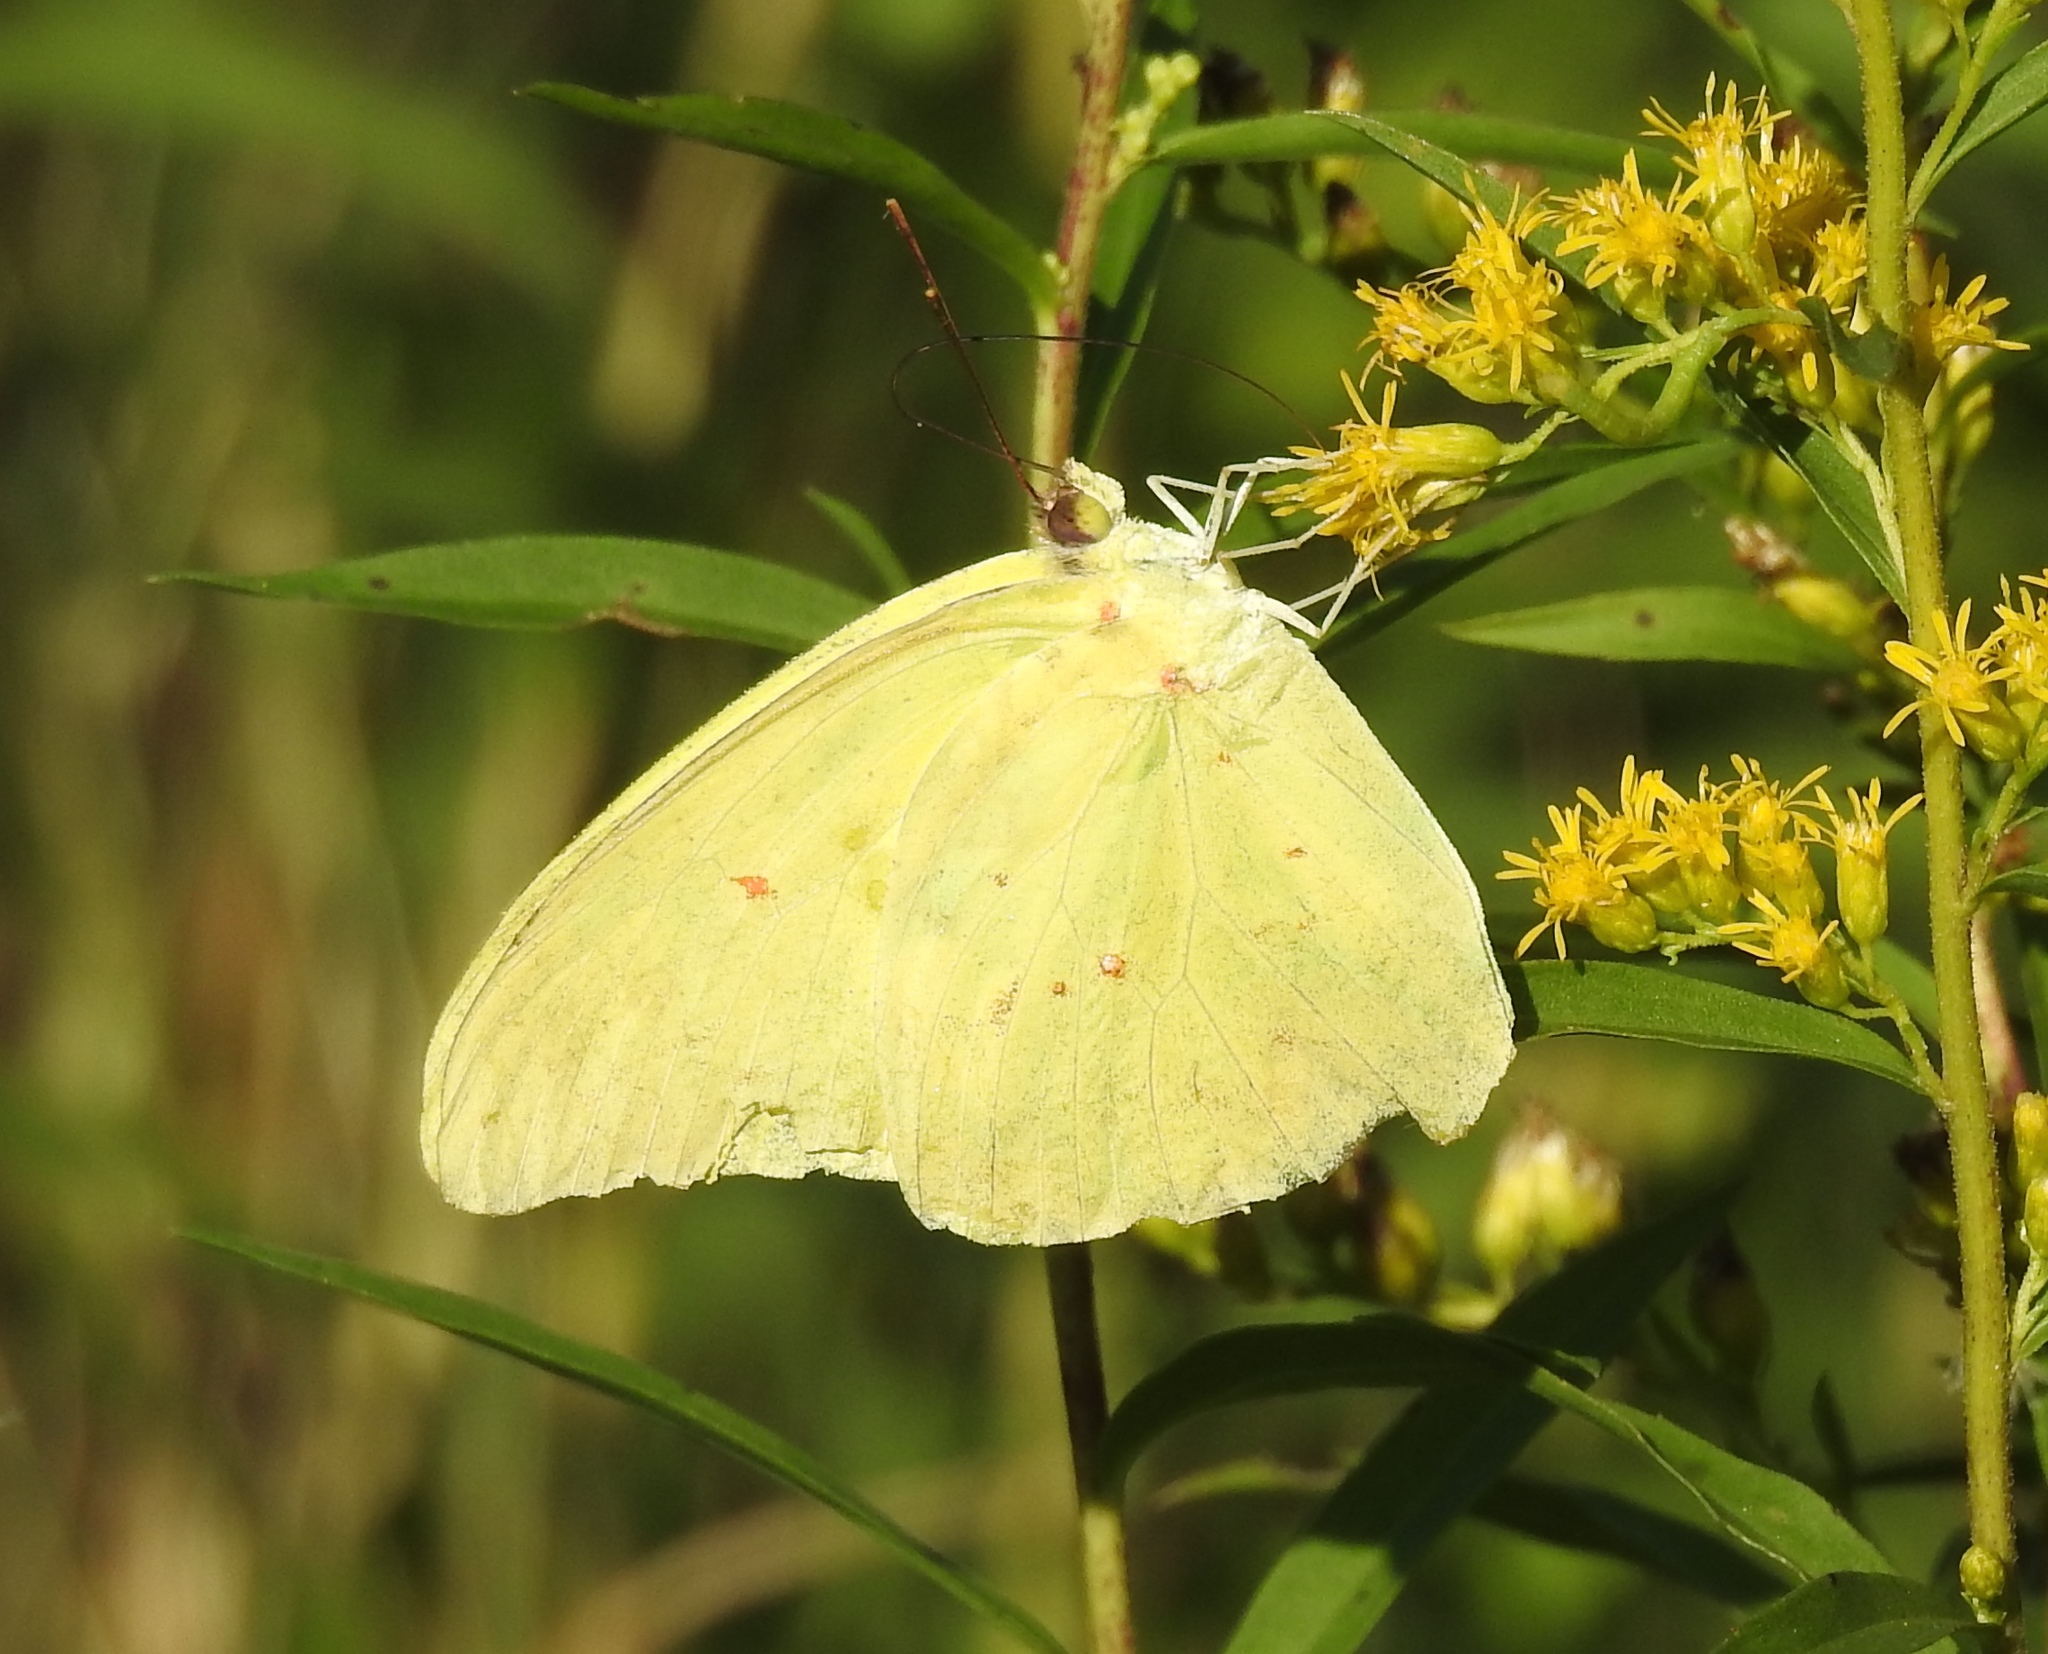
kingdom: Animalia
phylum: Arthropoda
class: Insecta
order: Lepidoptera
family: Pieridae
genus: Phoebis
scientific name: Phoebis sennae
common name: Cloudless sulphur
